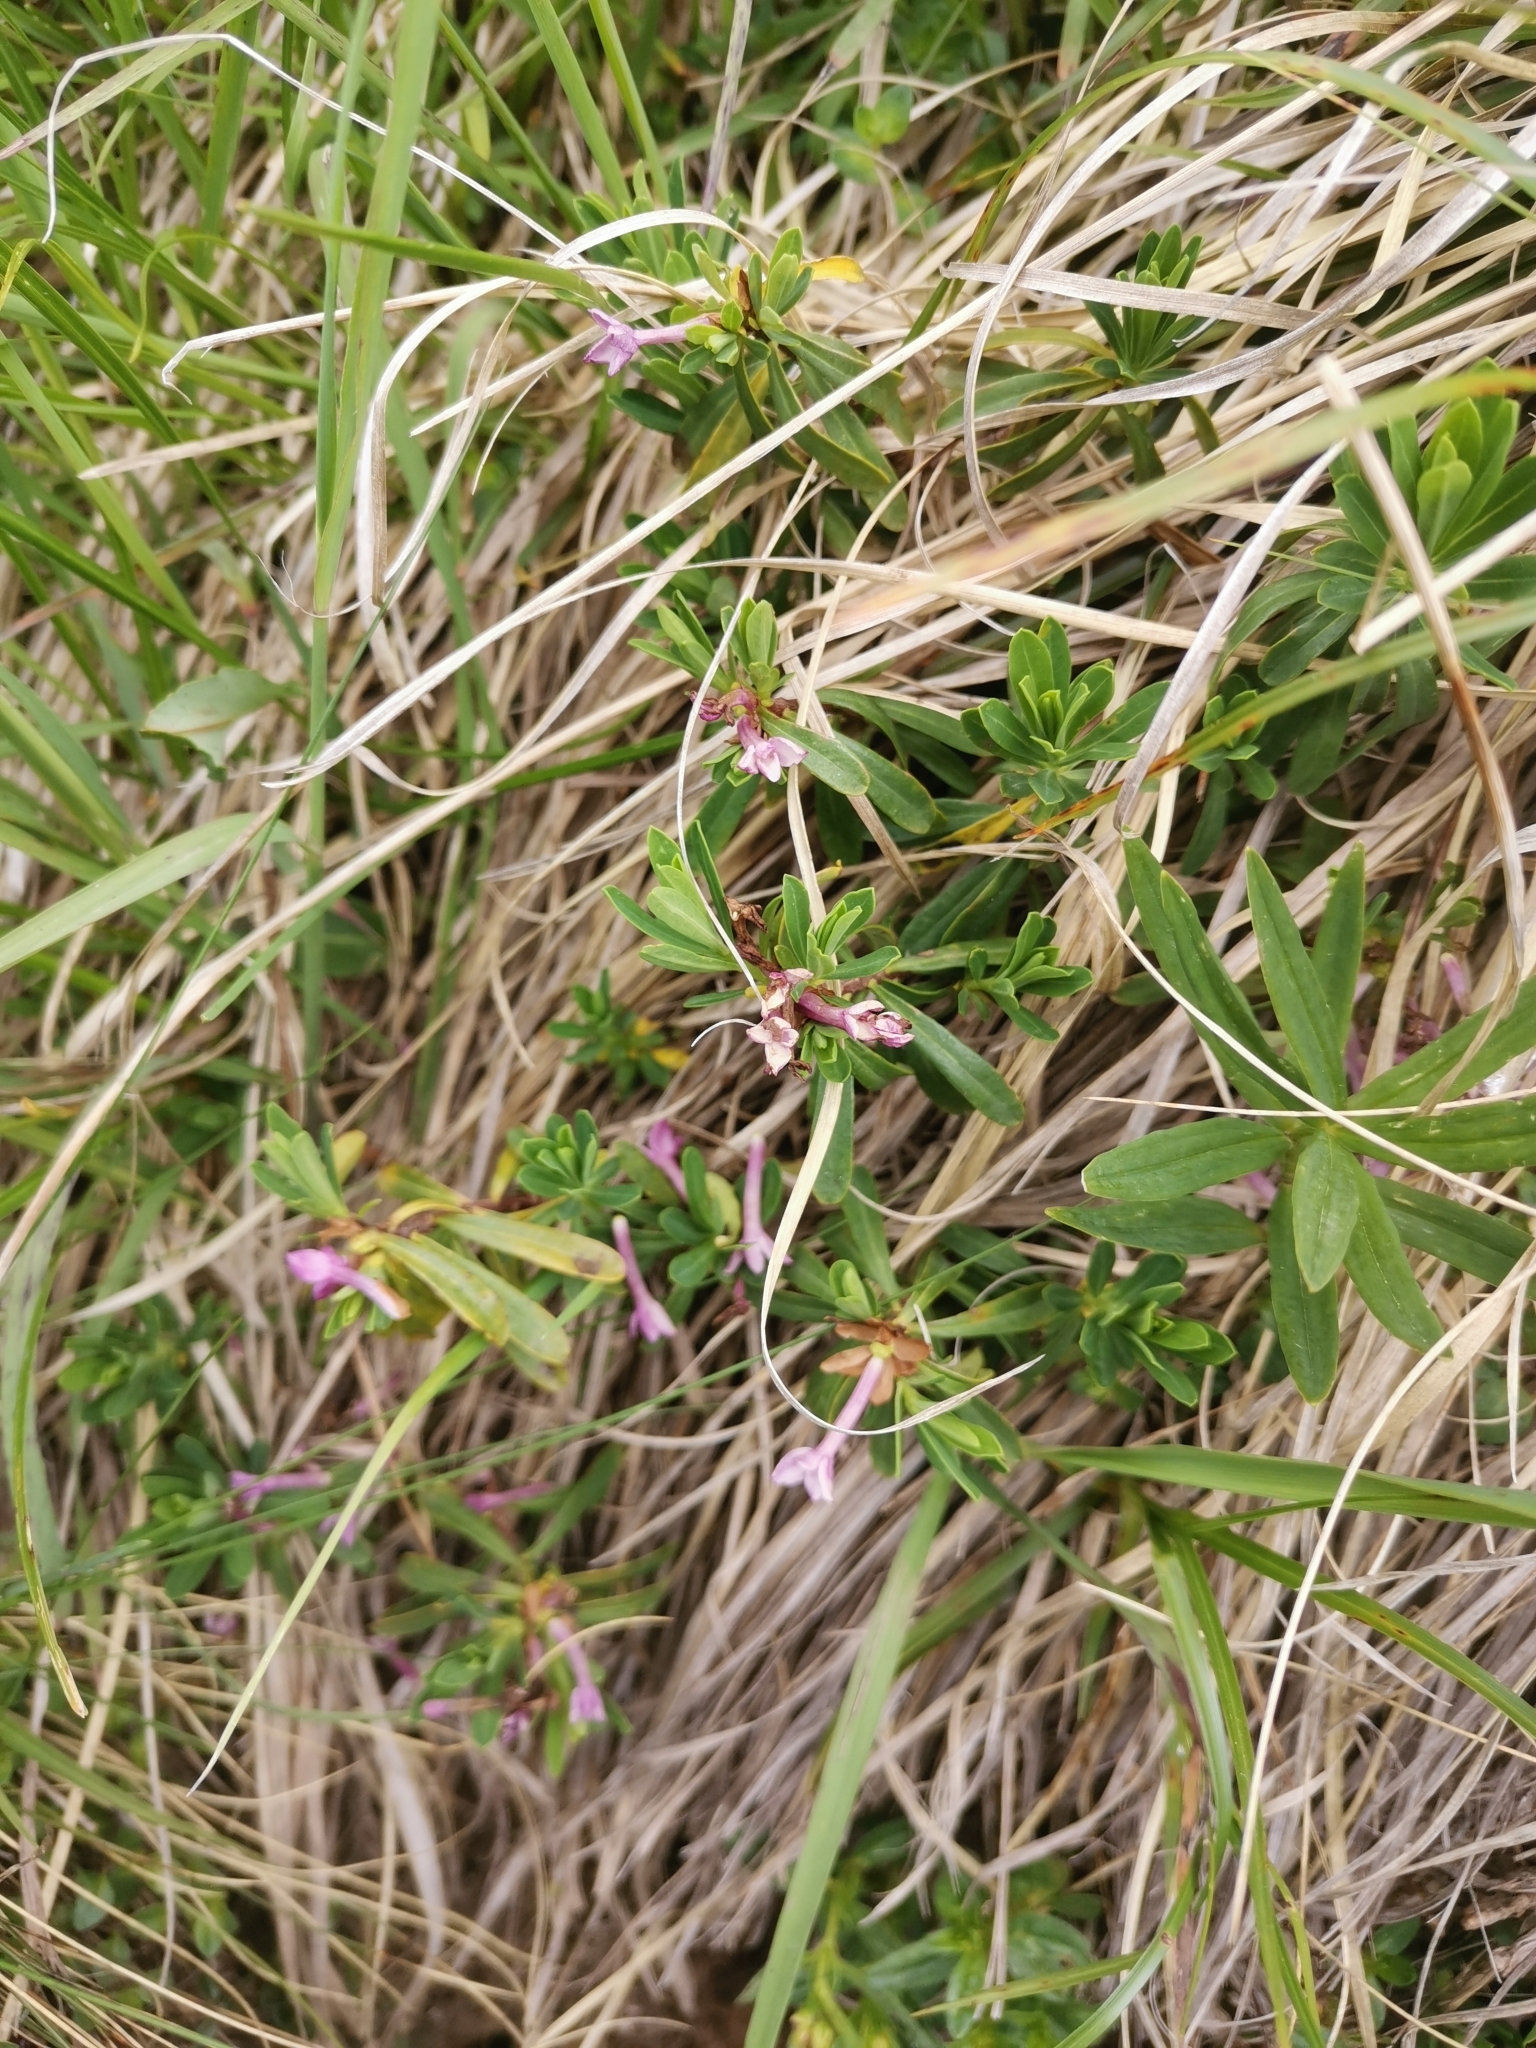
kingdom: Plantae
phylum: Tracheophyta
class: Magnoliopsida
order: Malvales
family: Thymelaeaceae
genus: Daphne
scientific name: Daphne striata
